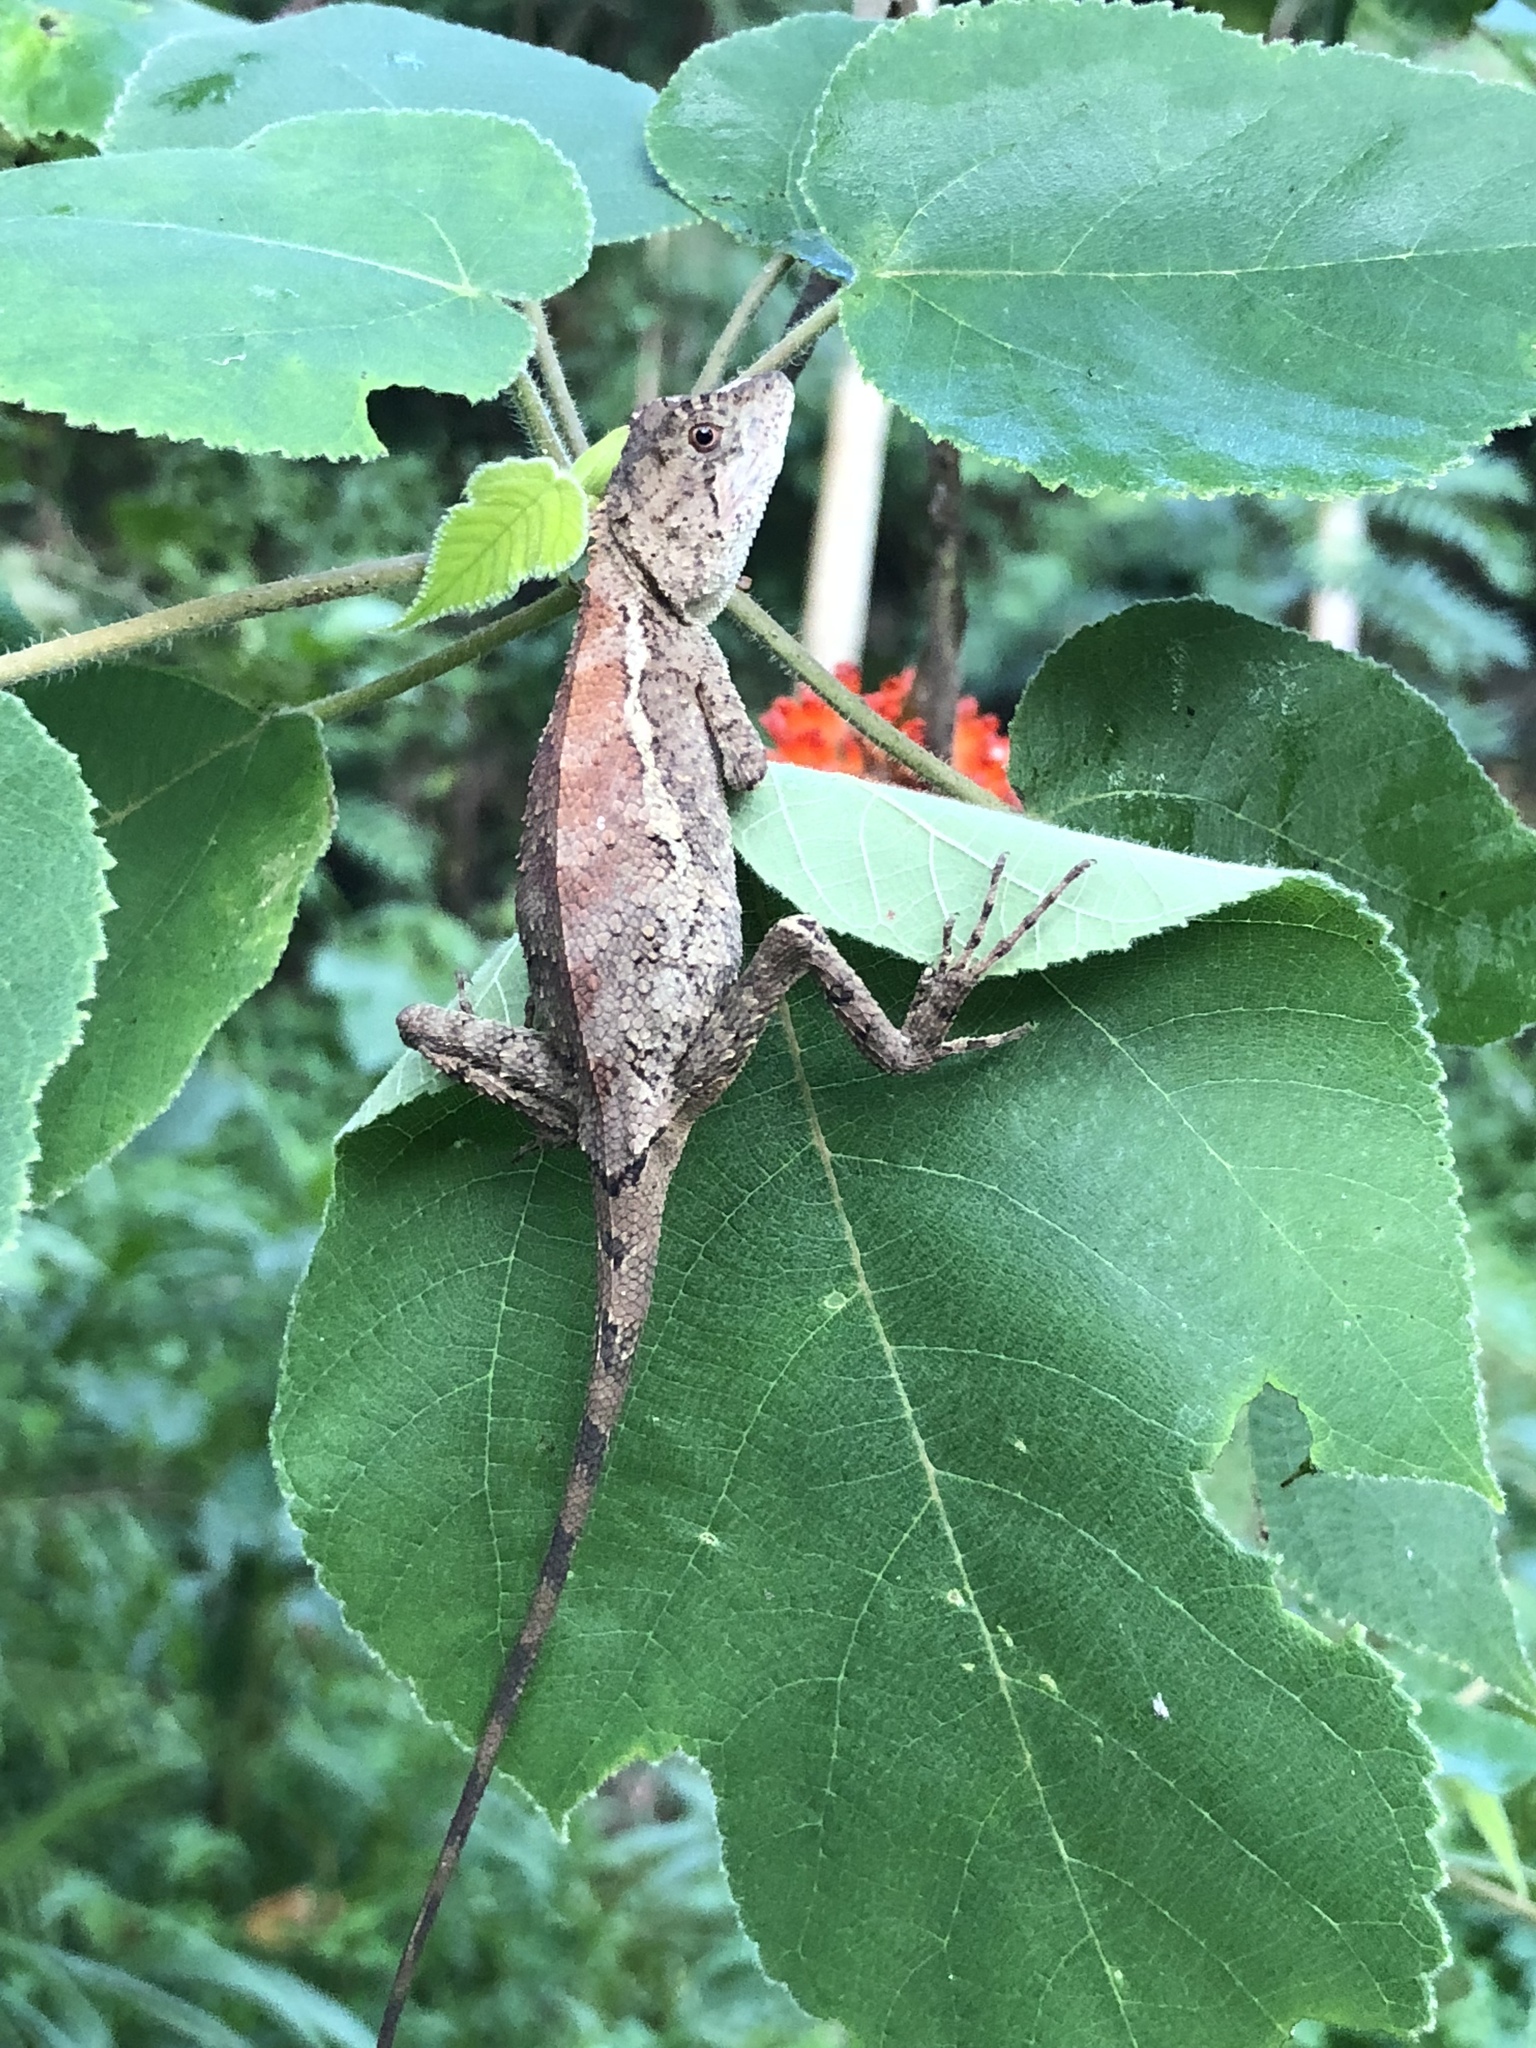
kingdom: Animalia
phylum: Chordata
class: Squamata
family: Agamidae
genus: Diploderma
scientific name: Diploderma swinhonis
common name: Taiwan japalure
